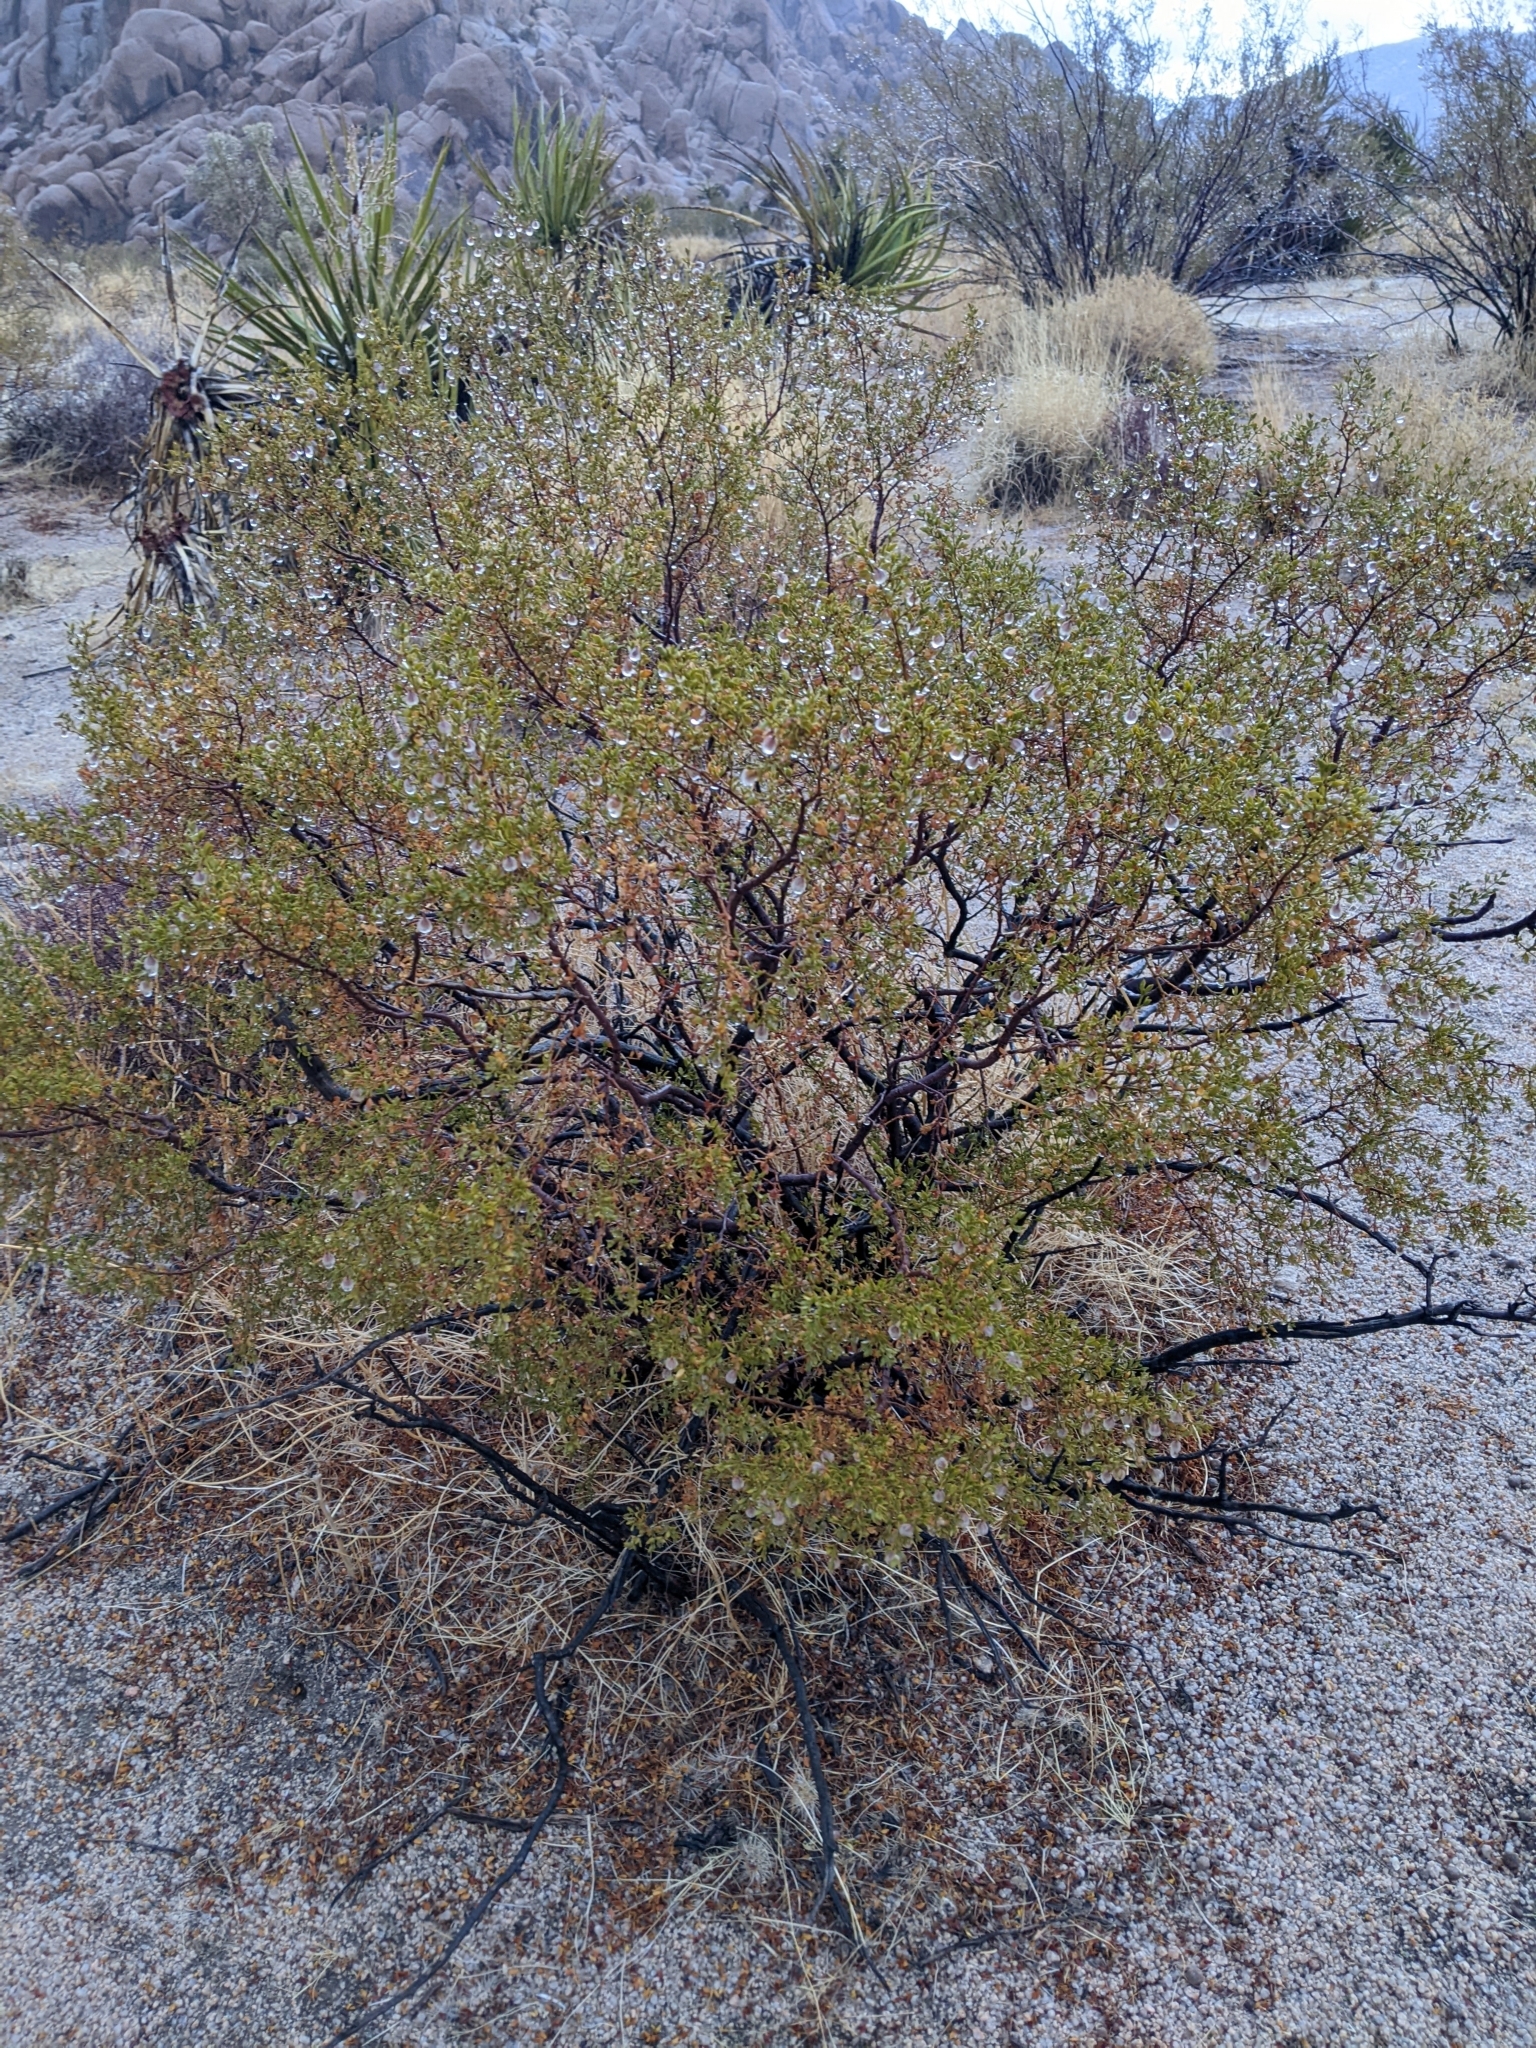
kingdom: Plantae
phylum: Tracheophyta
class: Magnoliopsida
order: Zygophyllales
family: Zygophyllaceae
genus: Larrea
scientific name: Larrea tridentata
